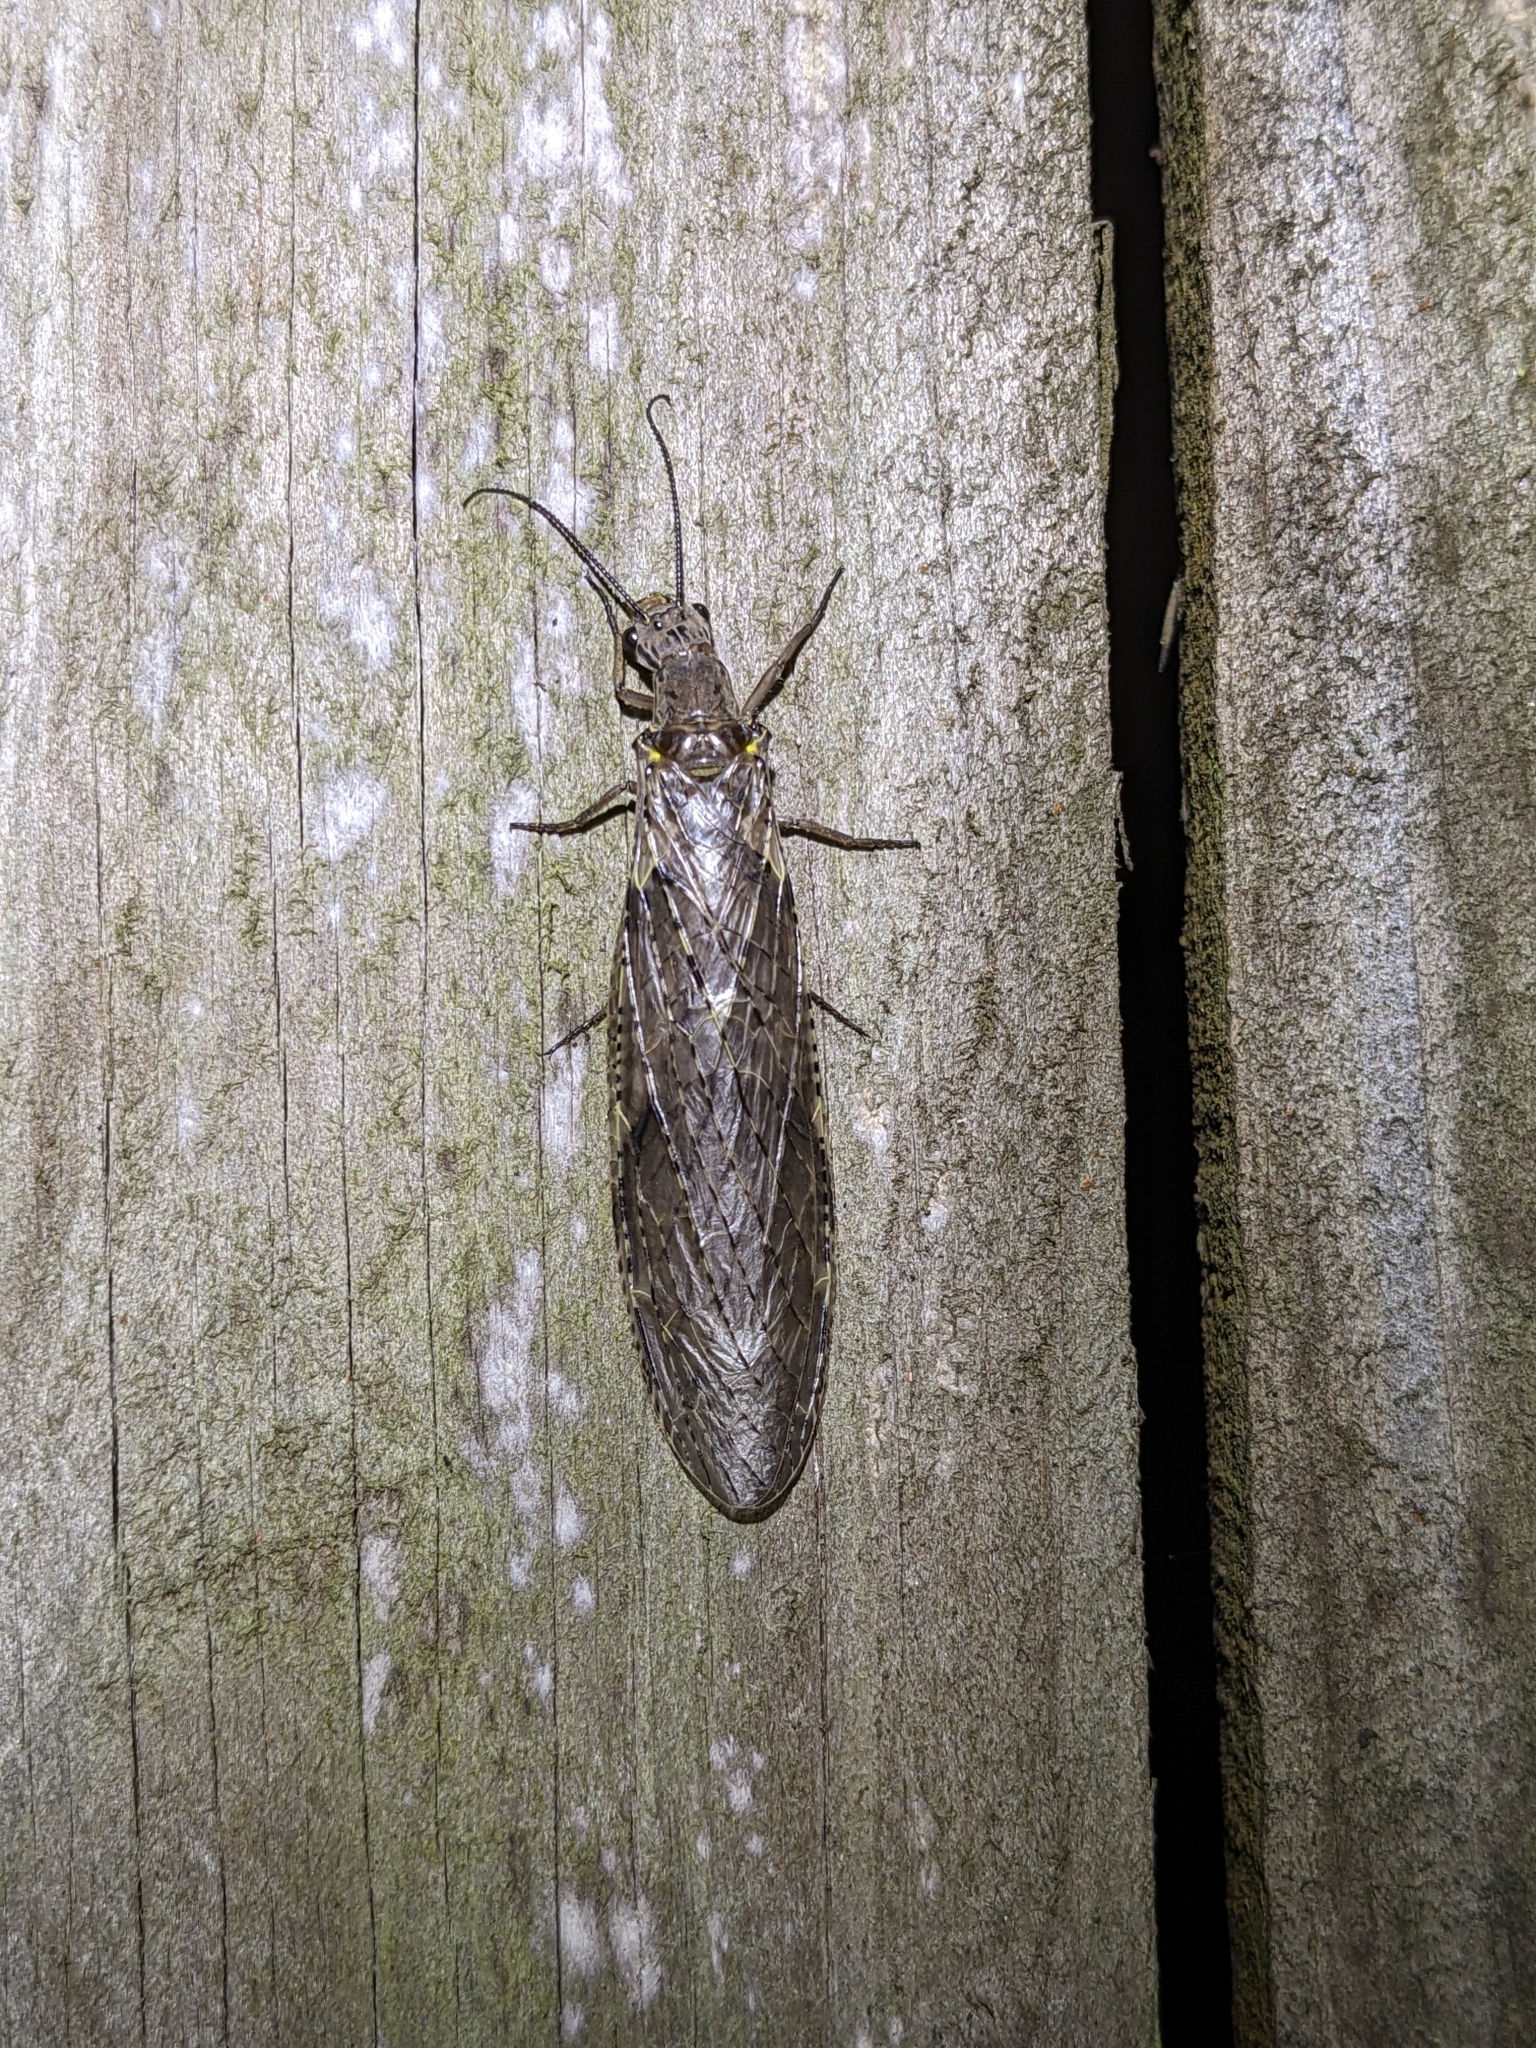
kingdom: Animalia
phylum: Arthropoda
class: Insecta
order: Megaloptera
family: Corydalidae
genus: Chauliodes
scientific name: Chauliodes rastricornis
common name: Spring fishfly
